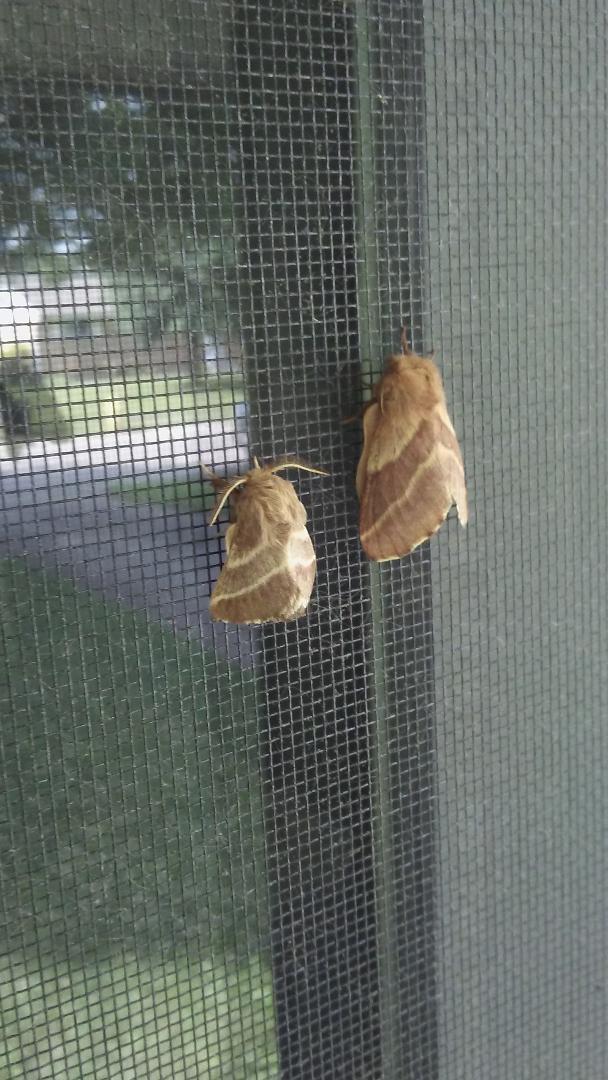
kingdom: Animalia
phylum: Arthropoda
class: Insecta
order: Lepidoptera
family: Lasiocampidae
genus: Malacosoma
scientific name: Malacosoma americana
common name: Eastern tent caterpillar moth
